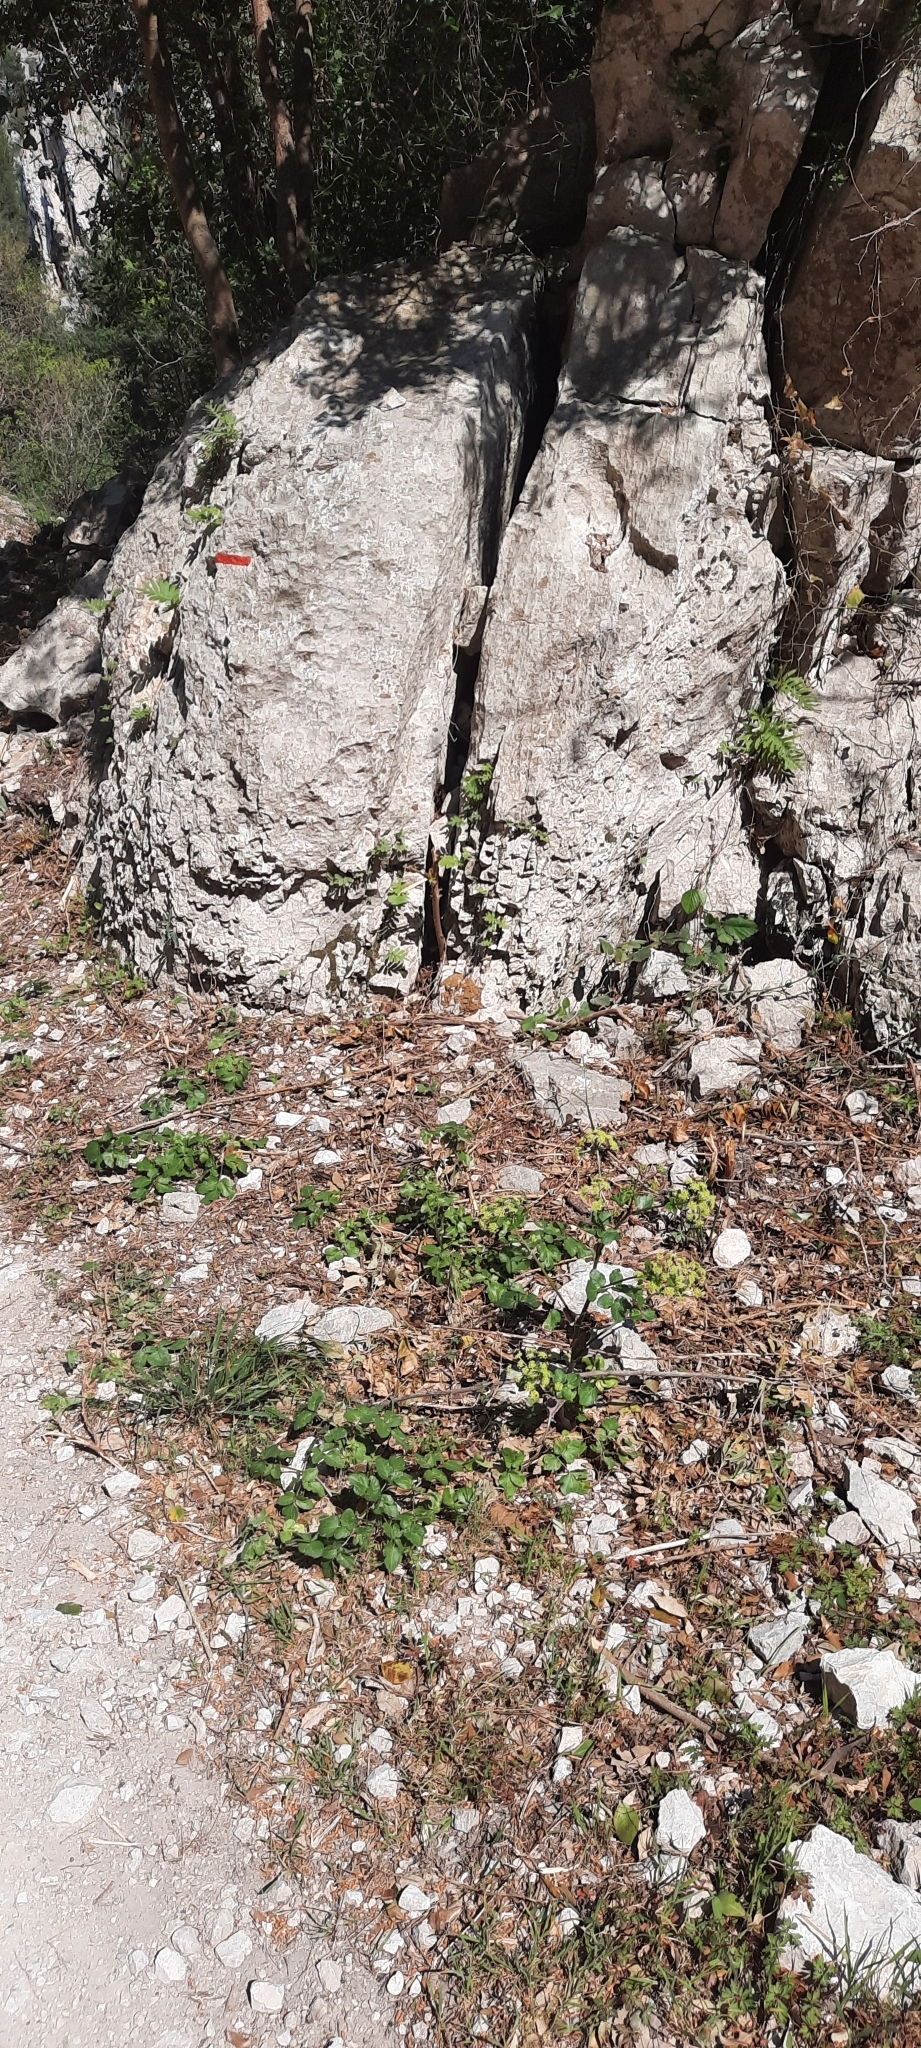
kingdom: Animalia
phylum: Arthropoda
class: Insecta
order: Lepidoptera
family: Pieridae
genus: Anthocharis
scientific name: Anthocharis euphenoides
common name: Provence orange-tip
